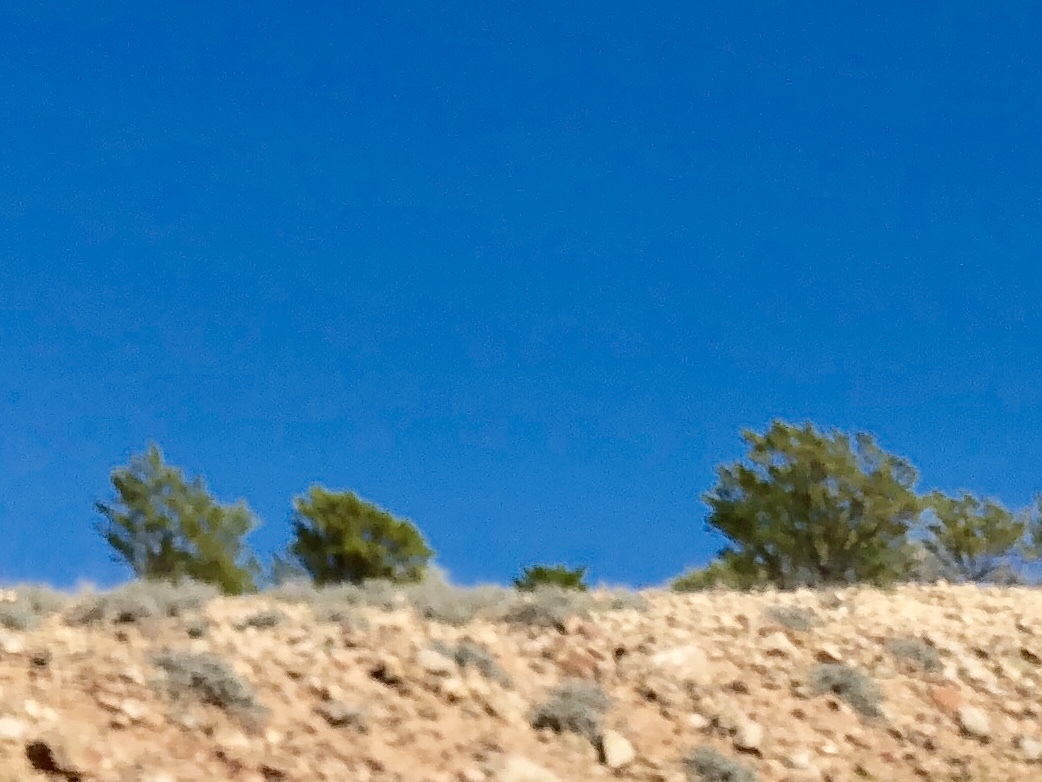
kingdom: Plantae
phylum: Tracheophyta
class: Magnoliopsida
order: Zygophyllales
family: Zygophyllaceae
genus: Larrea
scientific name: Larrea tridentata
